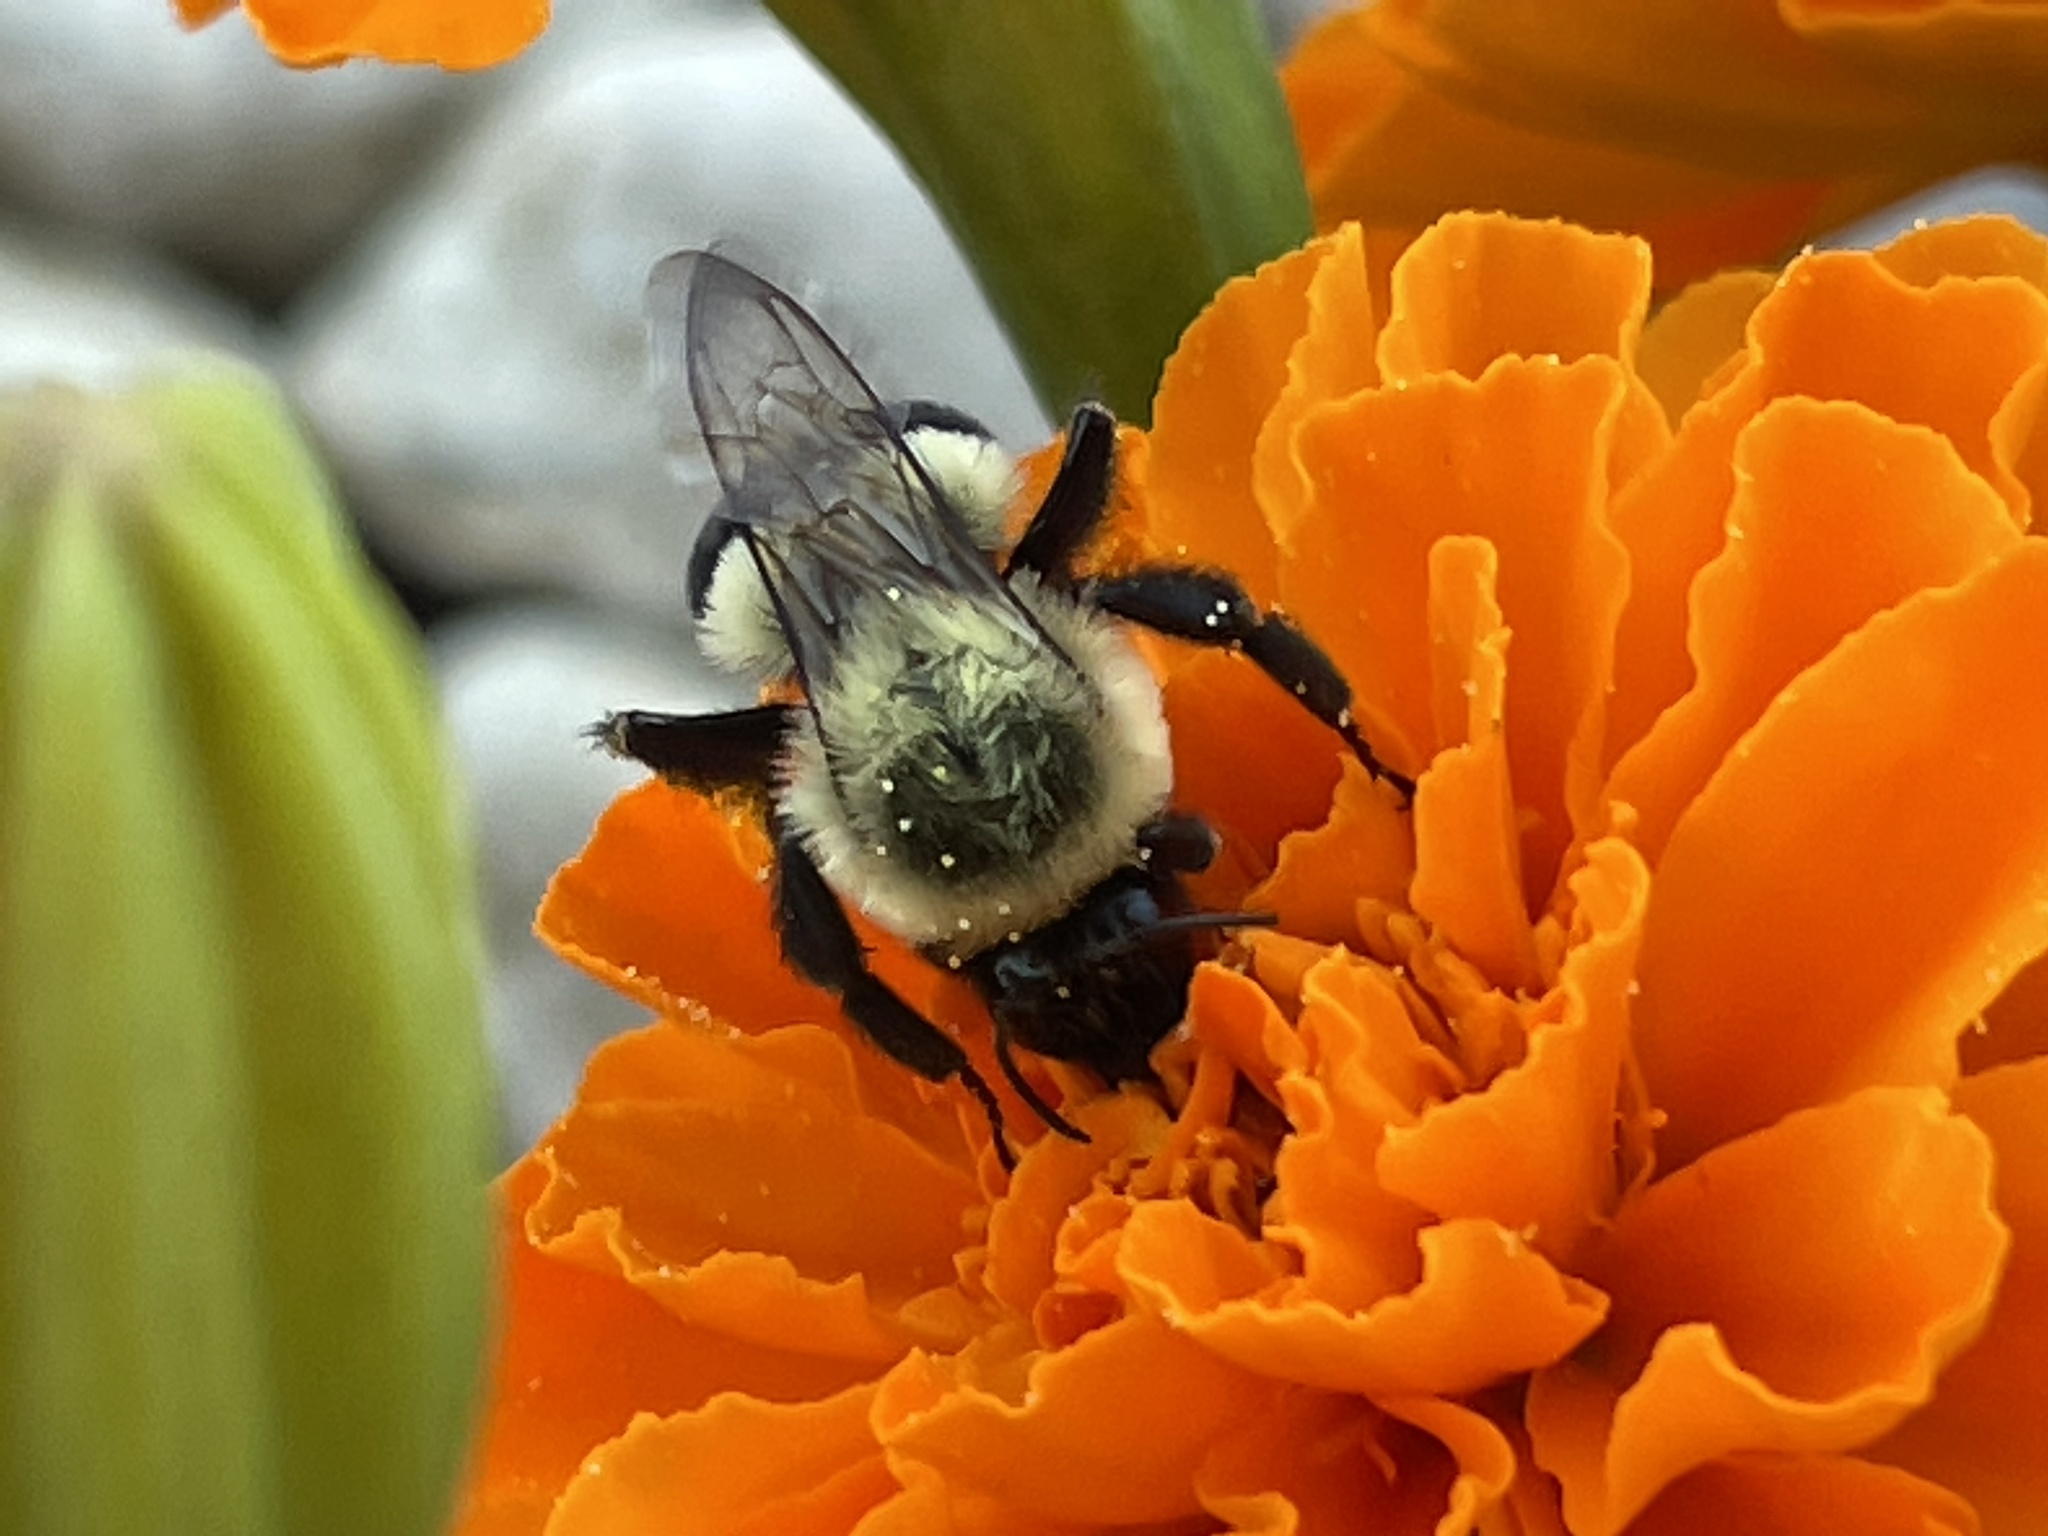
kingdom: Animalia
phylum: Arthropoda
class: Insecta
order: Hymenoptera
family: Apidae
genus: Bombus
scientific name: Bombus impatiens
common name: Common eastern bumble bee
